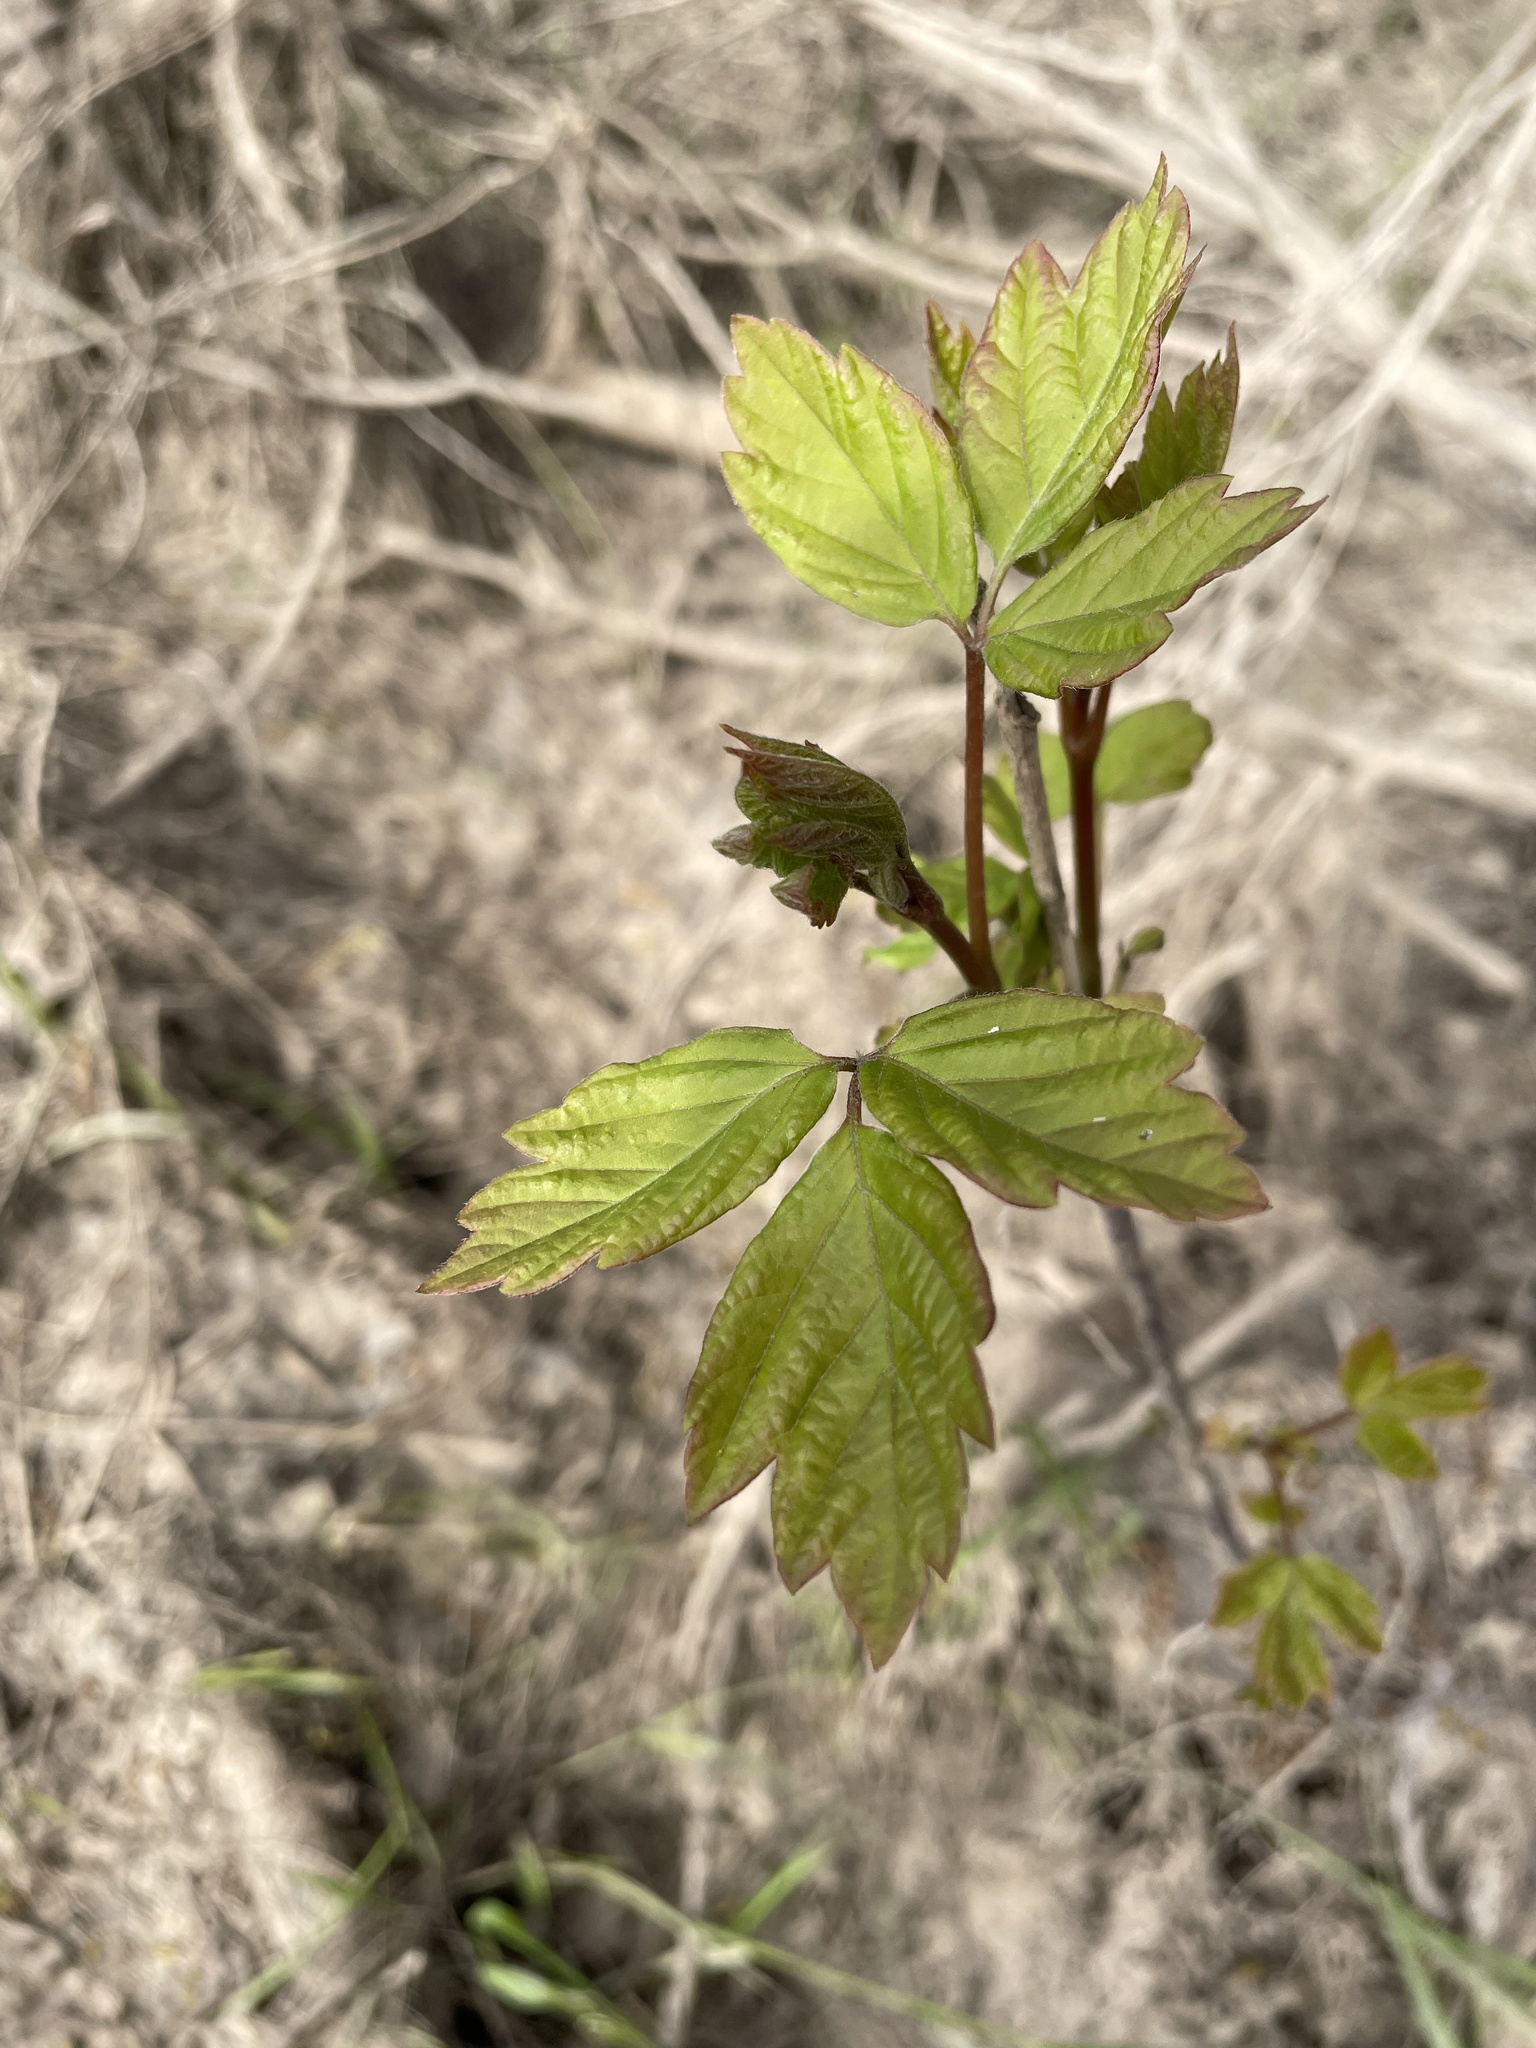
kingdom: Plantae
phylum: Tracheophyta
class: Magnoliopsida
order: Sapindales
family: Anacardiaceae
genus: Toxicodendron
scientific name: Toxicodendron diversilobum
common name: Pacific poison-oak
